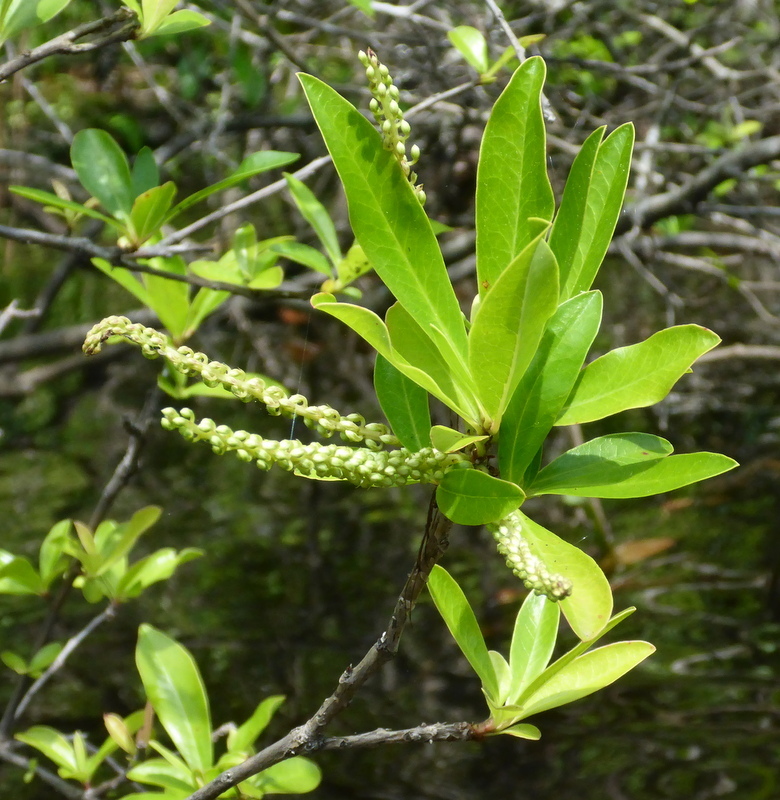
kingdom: Plantae
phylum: Tracheophyta
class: Magnoliopsida
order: Ericales
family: Cyrillaceae
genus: Cyrilla
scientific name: Cyrilla racemiflora
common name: Black titi
